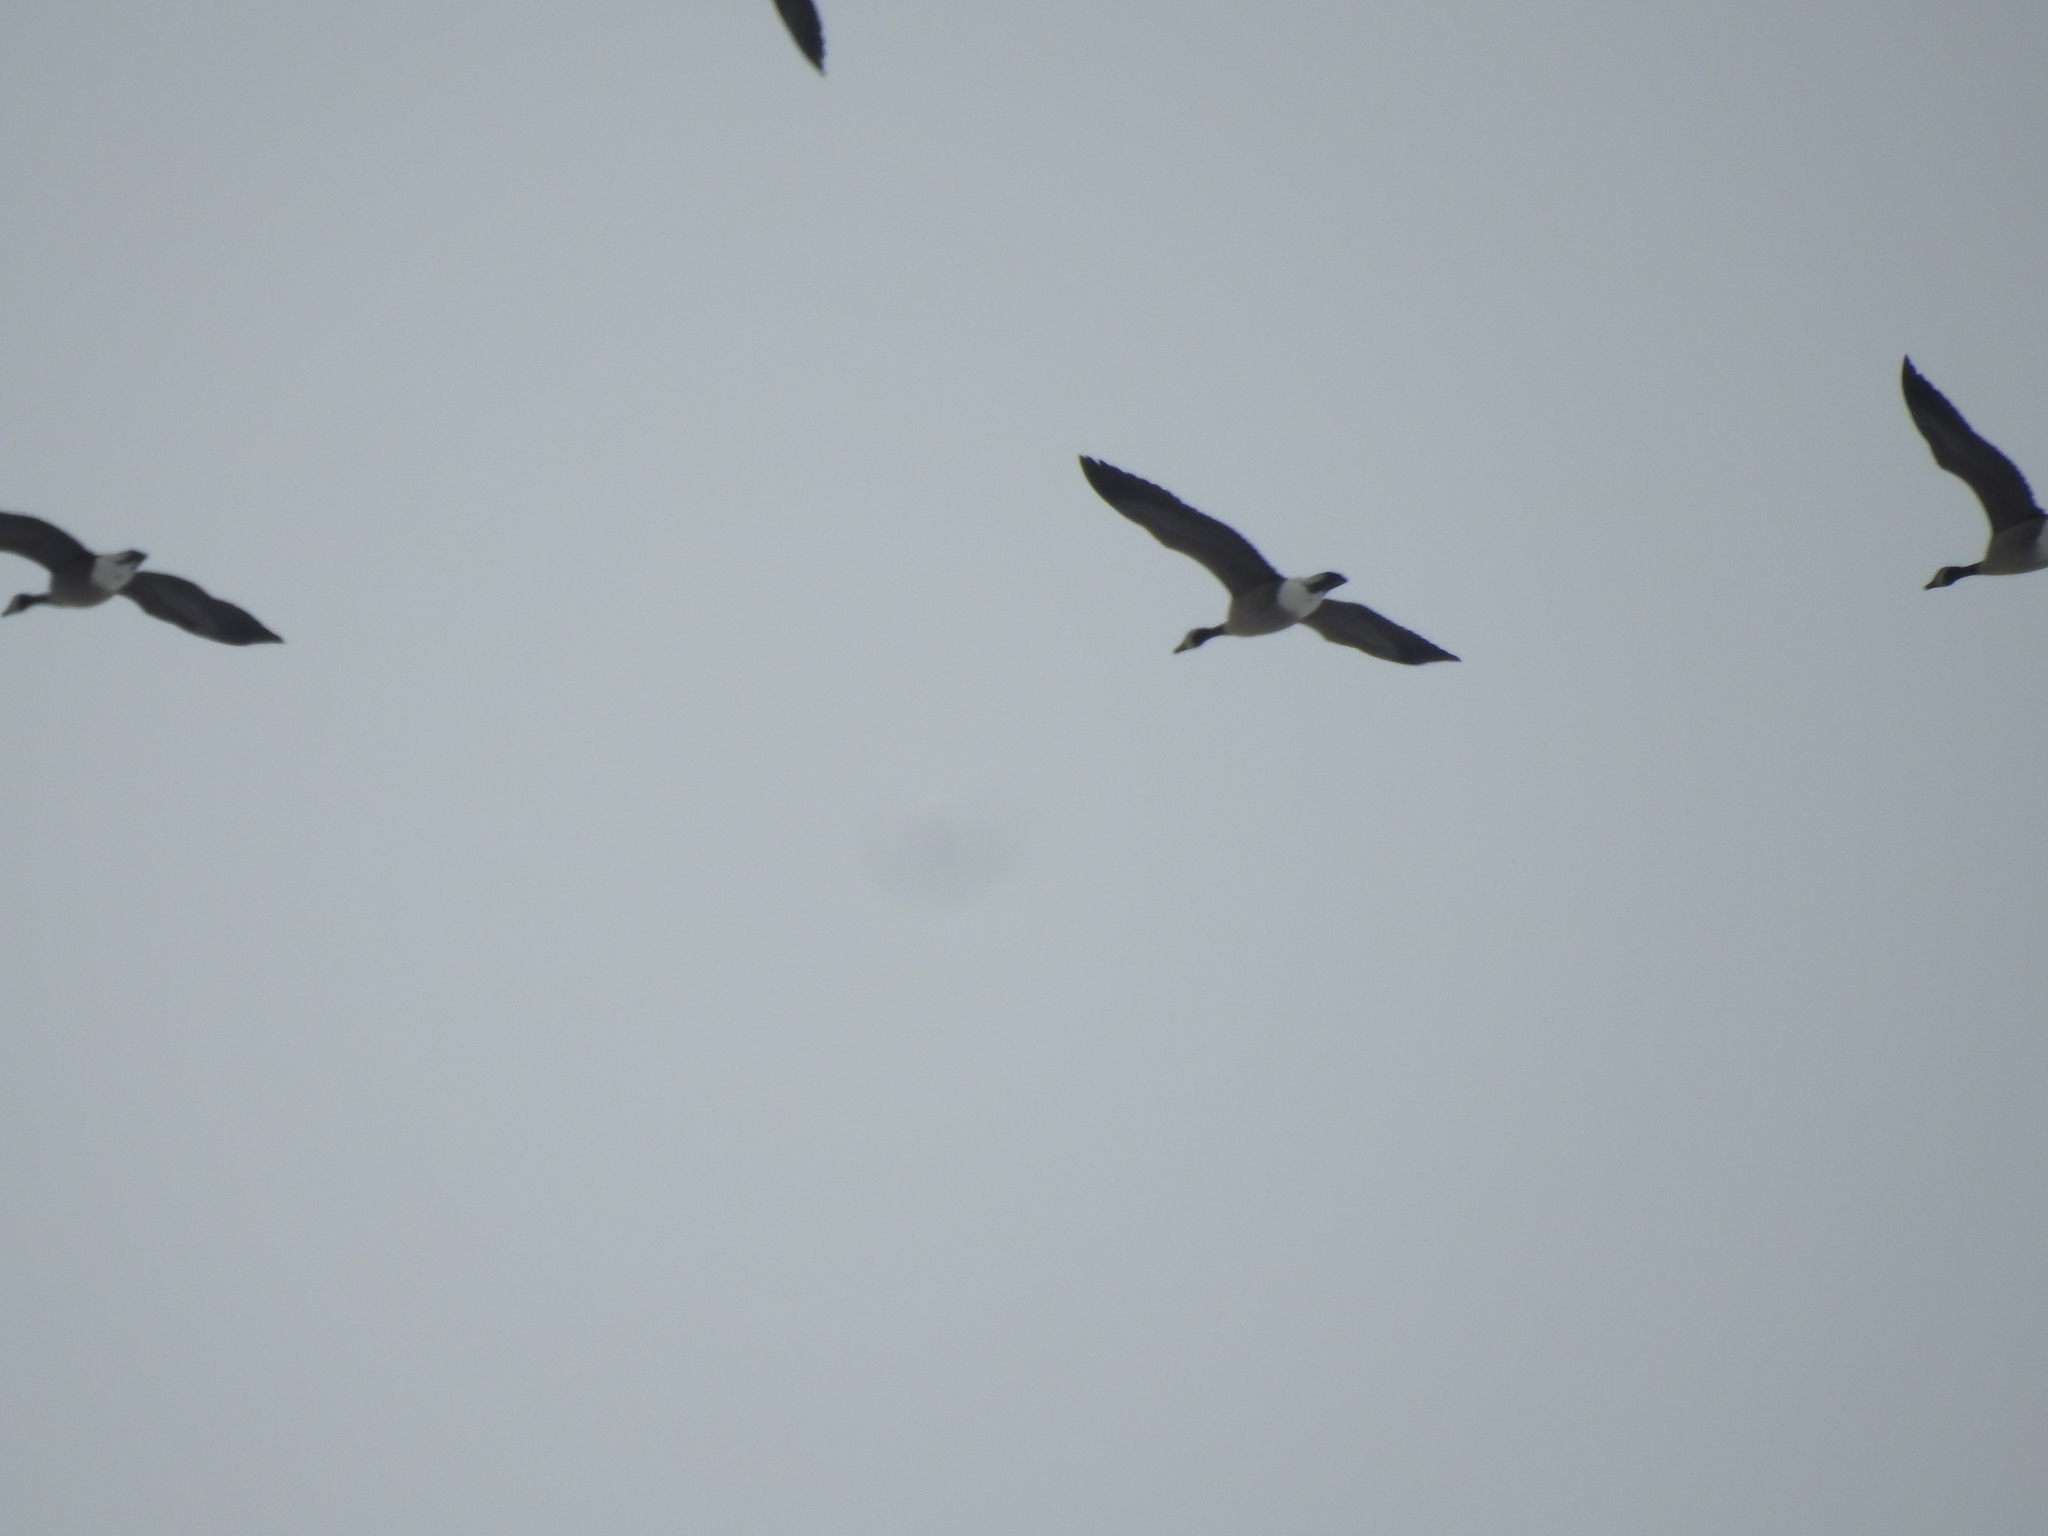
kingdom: Animalia
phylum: Chordata
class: Aves
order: Anseriformes
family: Anatidae
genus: Branta
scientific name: Branta canadensis
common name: Canada goose
